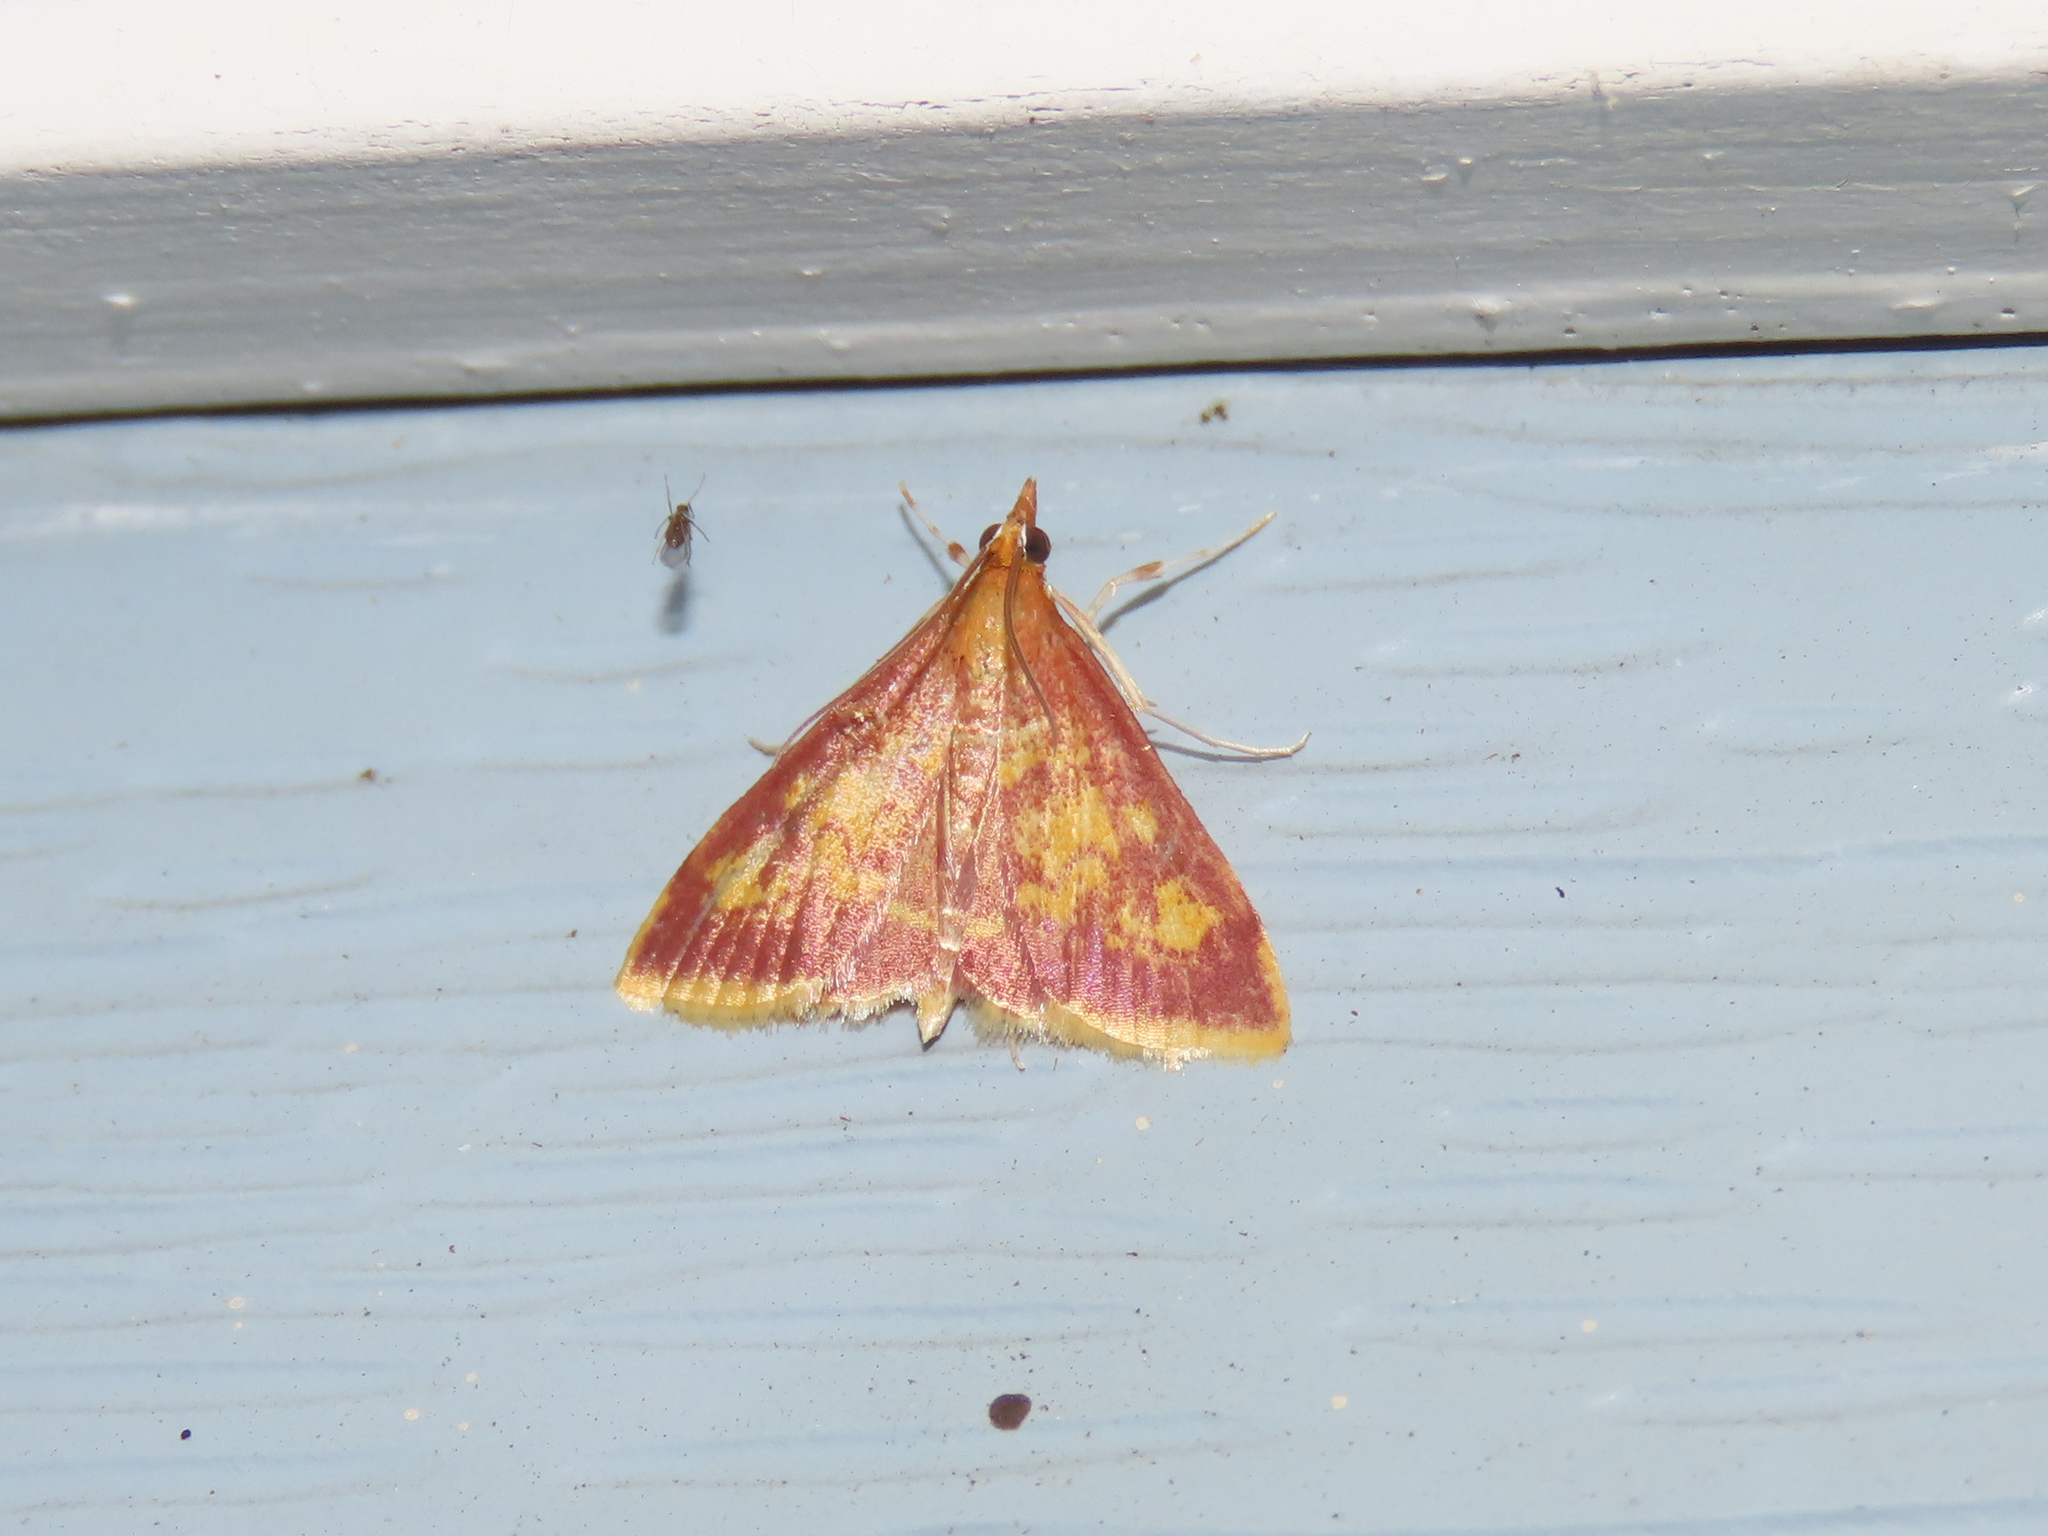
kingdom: Animalia
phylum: Arthropoda
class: Insecta
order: Lepidoptera
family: Crambidae
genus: Pyrausta
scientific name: Pyrausta acrionalis
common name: Mint-loving pyrausta moth
